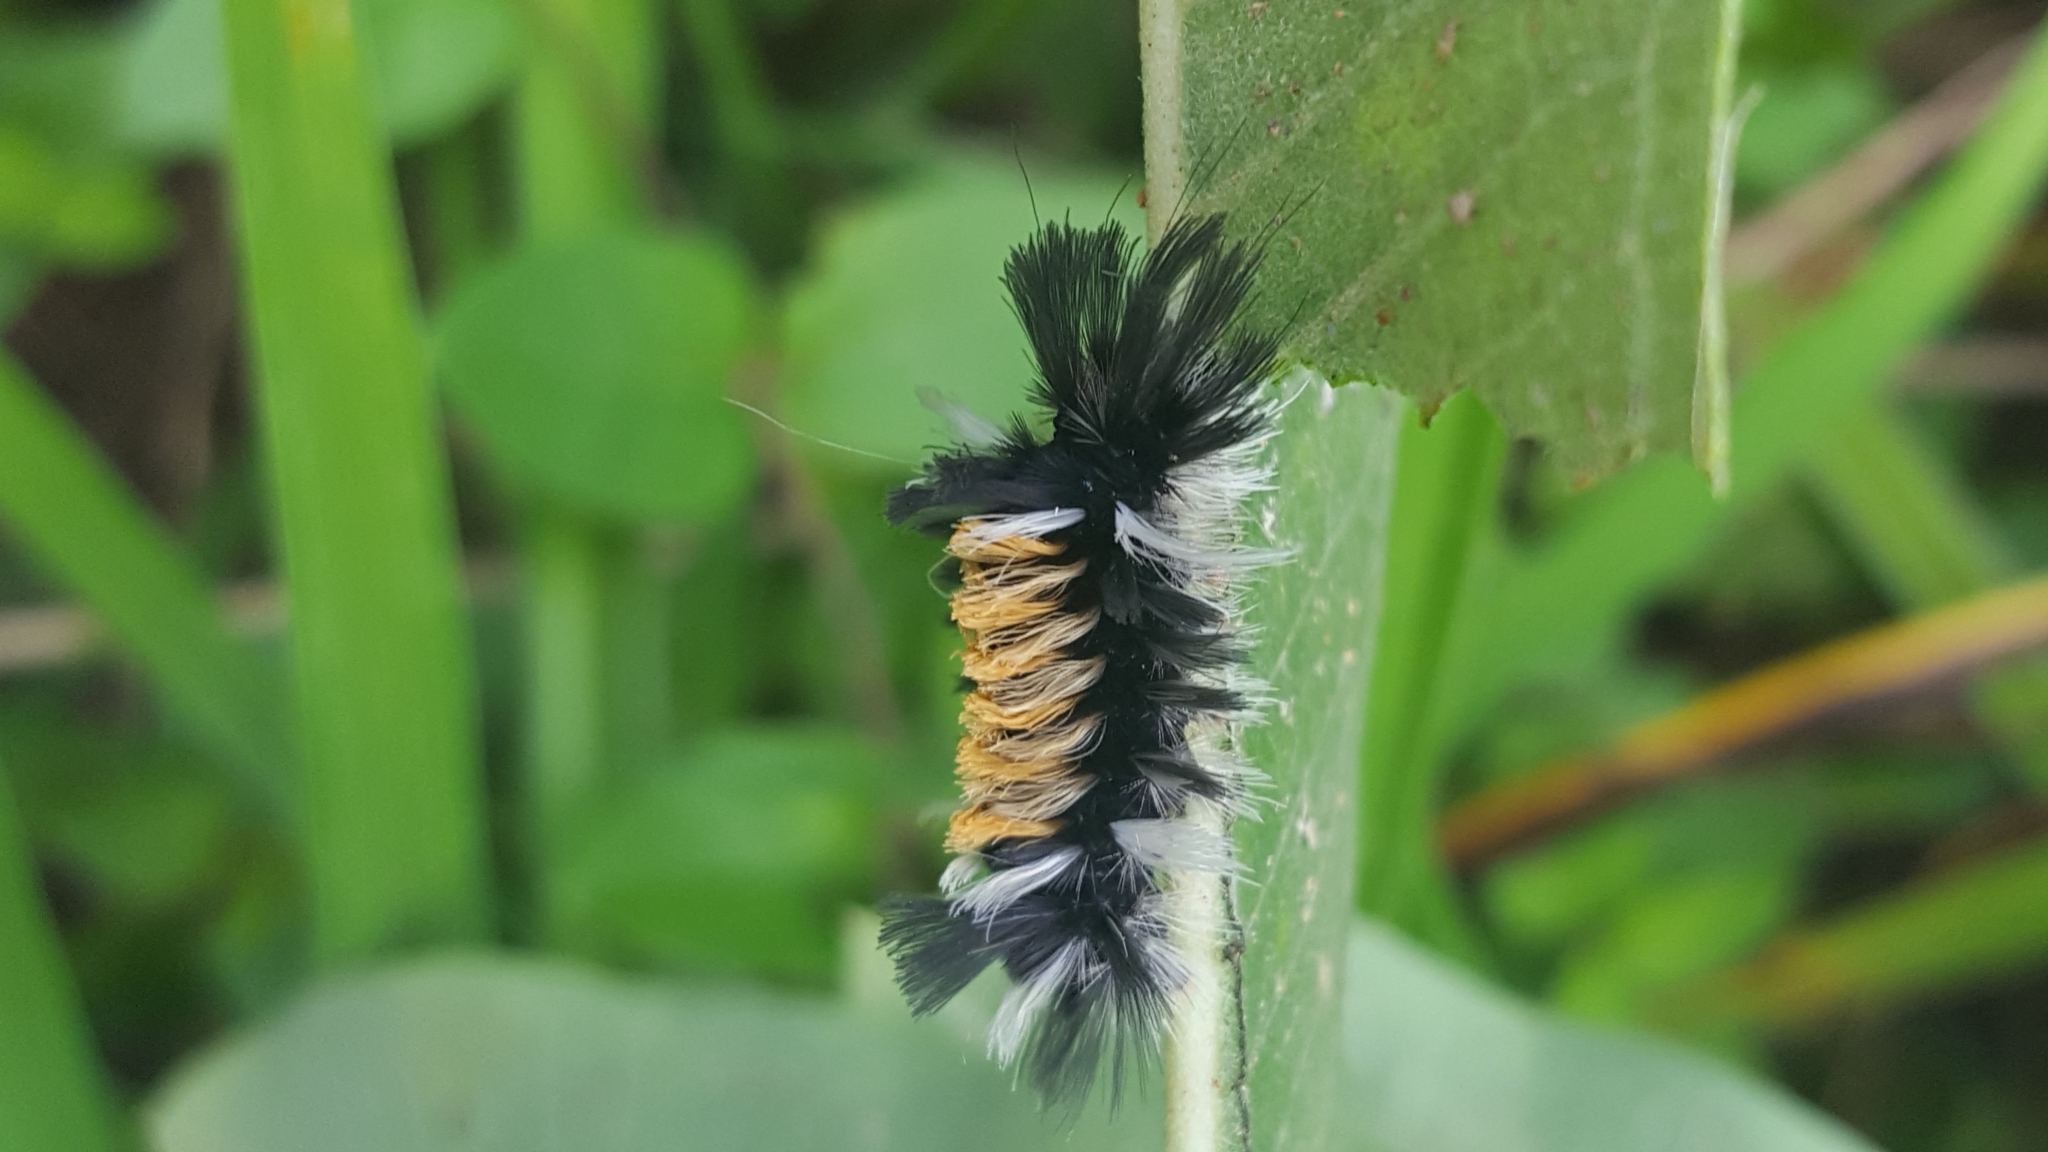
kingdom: Animalia
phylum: Arthropoda
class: Insecta
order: Lepidoptera
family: Erebidae
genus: Euchaetes
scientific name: Euchaetes egle
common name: Milkweed tussock moth
